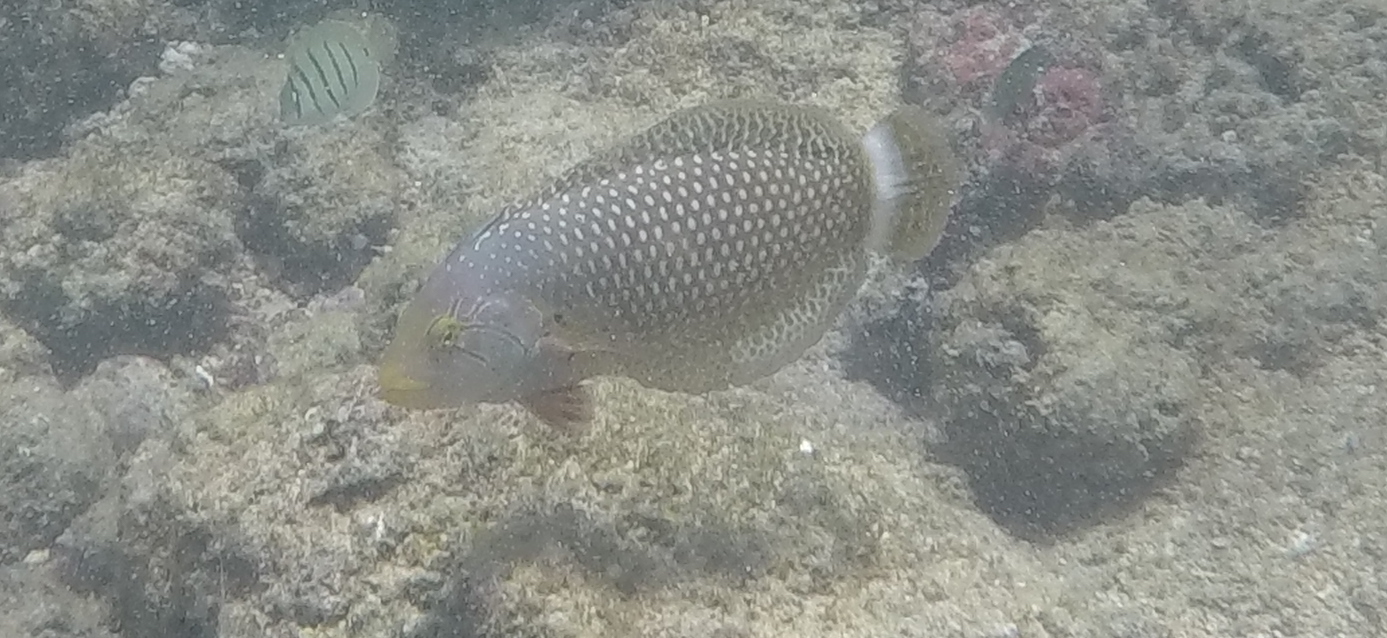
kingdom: Animalia
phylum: Chordata
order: Perciformes
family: Labridae
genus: Novaculichthys
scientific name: Novaculichthys taeniourus
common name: Rockmover wrasse
